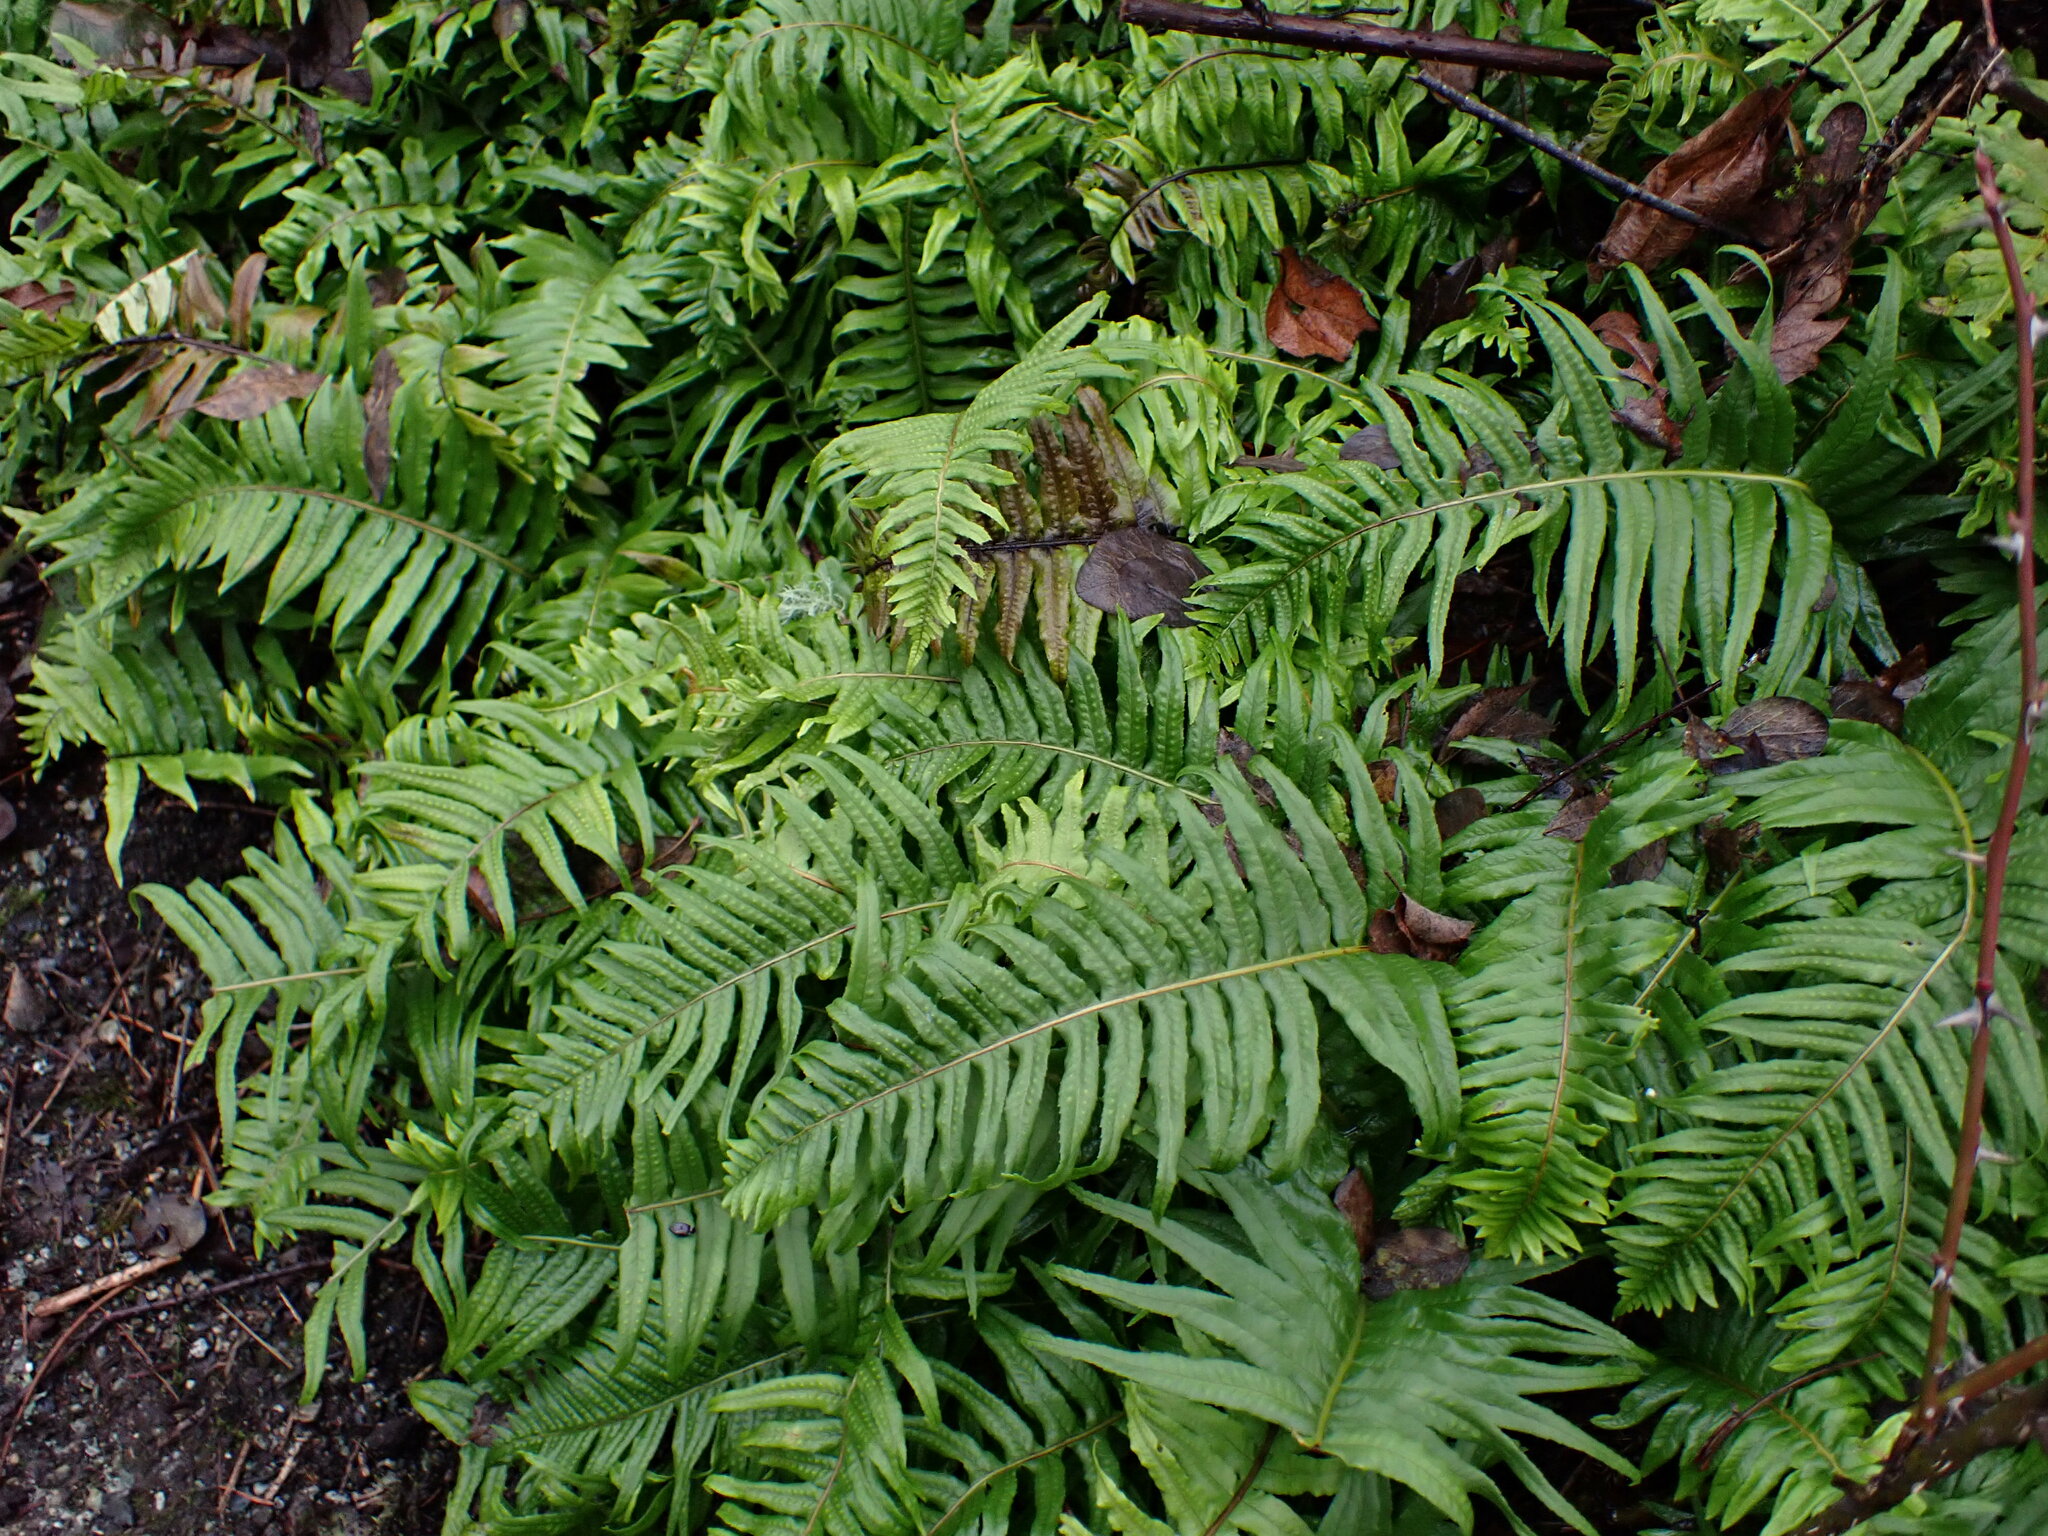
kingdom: Plantae
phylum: Tracheophyta
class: Polypodiopsida
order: Polypodiales
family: Polypodiaceae
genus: Polypodium
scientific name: Polypodium glycyrrhiza
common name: Licorice fern
